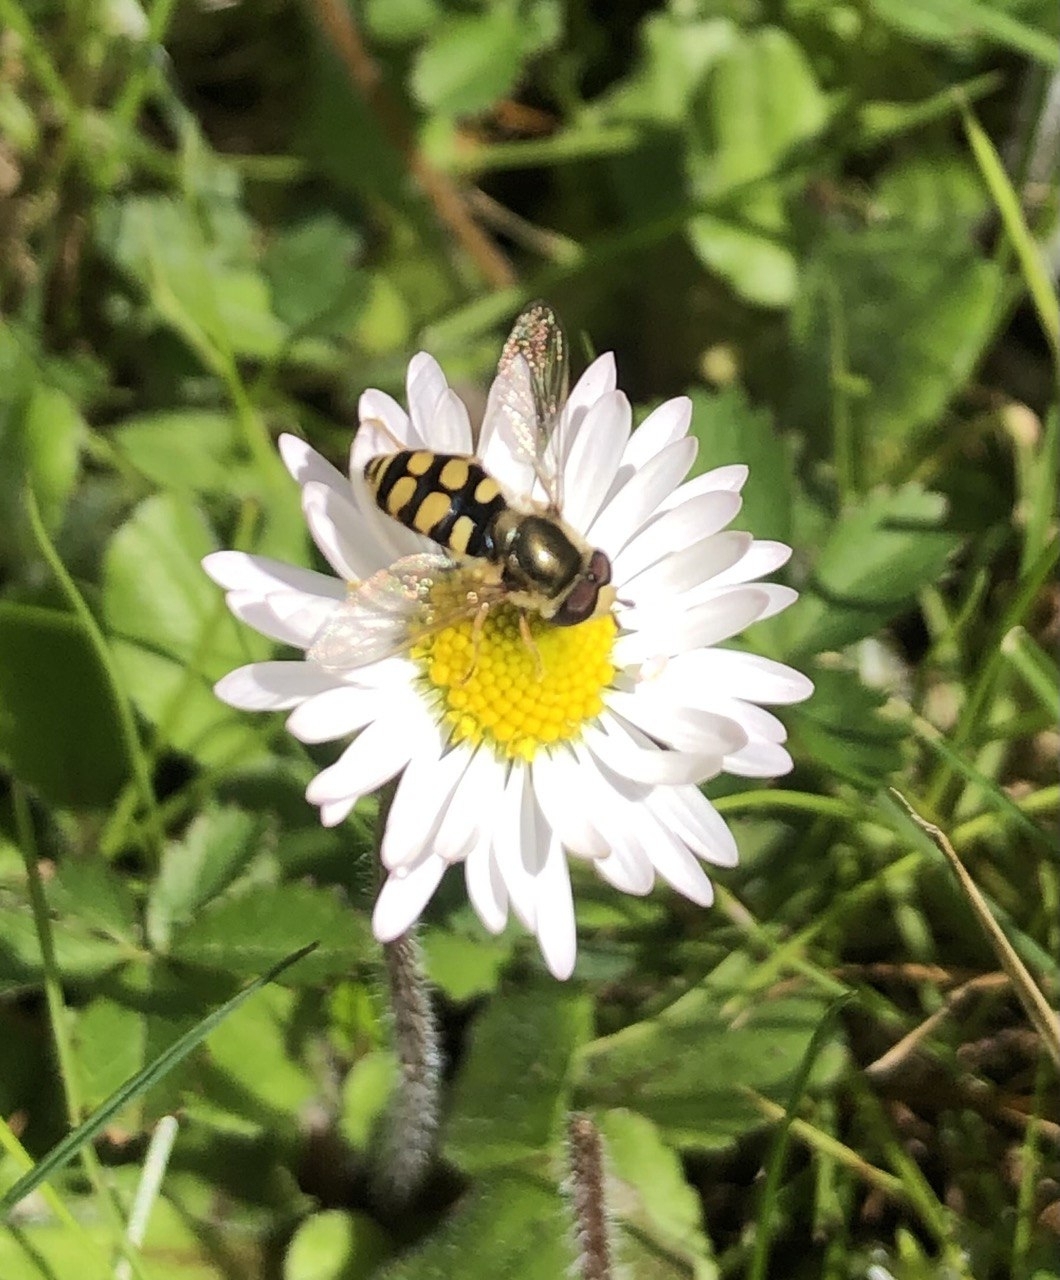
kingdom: Animalia
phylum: Arthropoda
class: Insecta
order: Diptera
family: Syrphidae
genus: Eupeodes
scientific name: Eupeodes corollae
